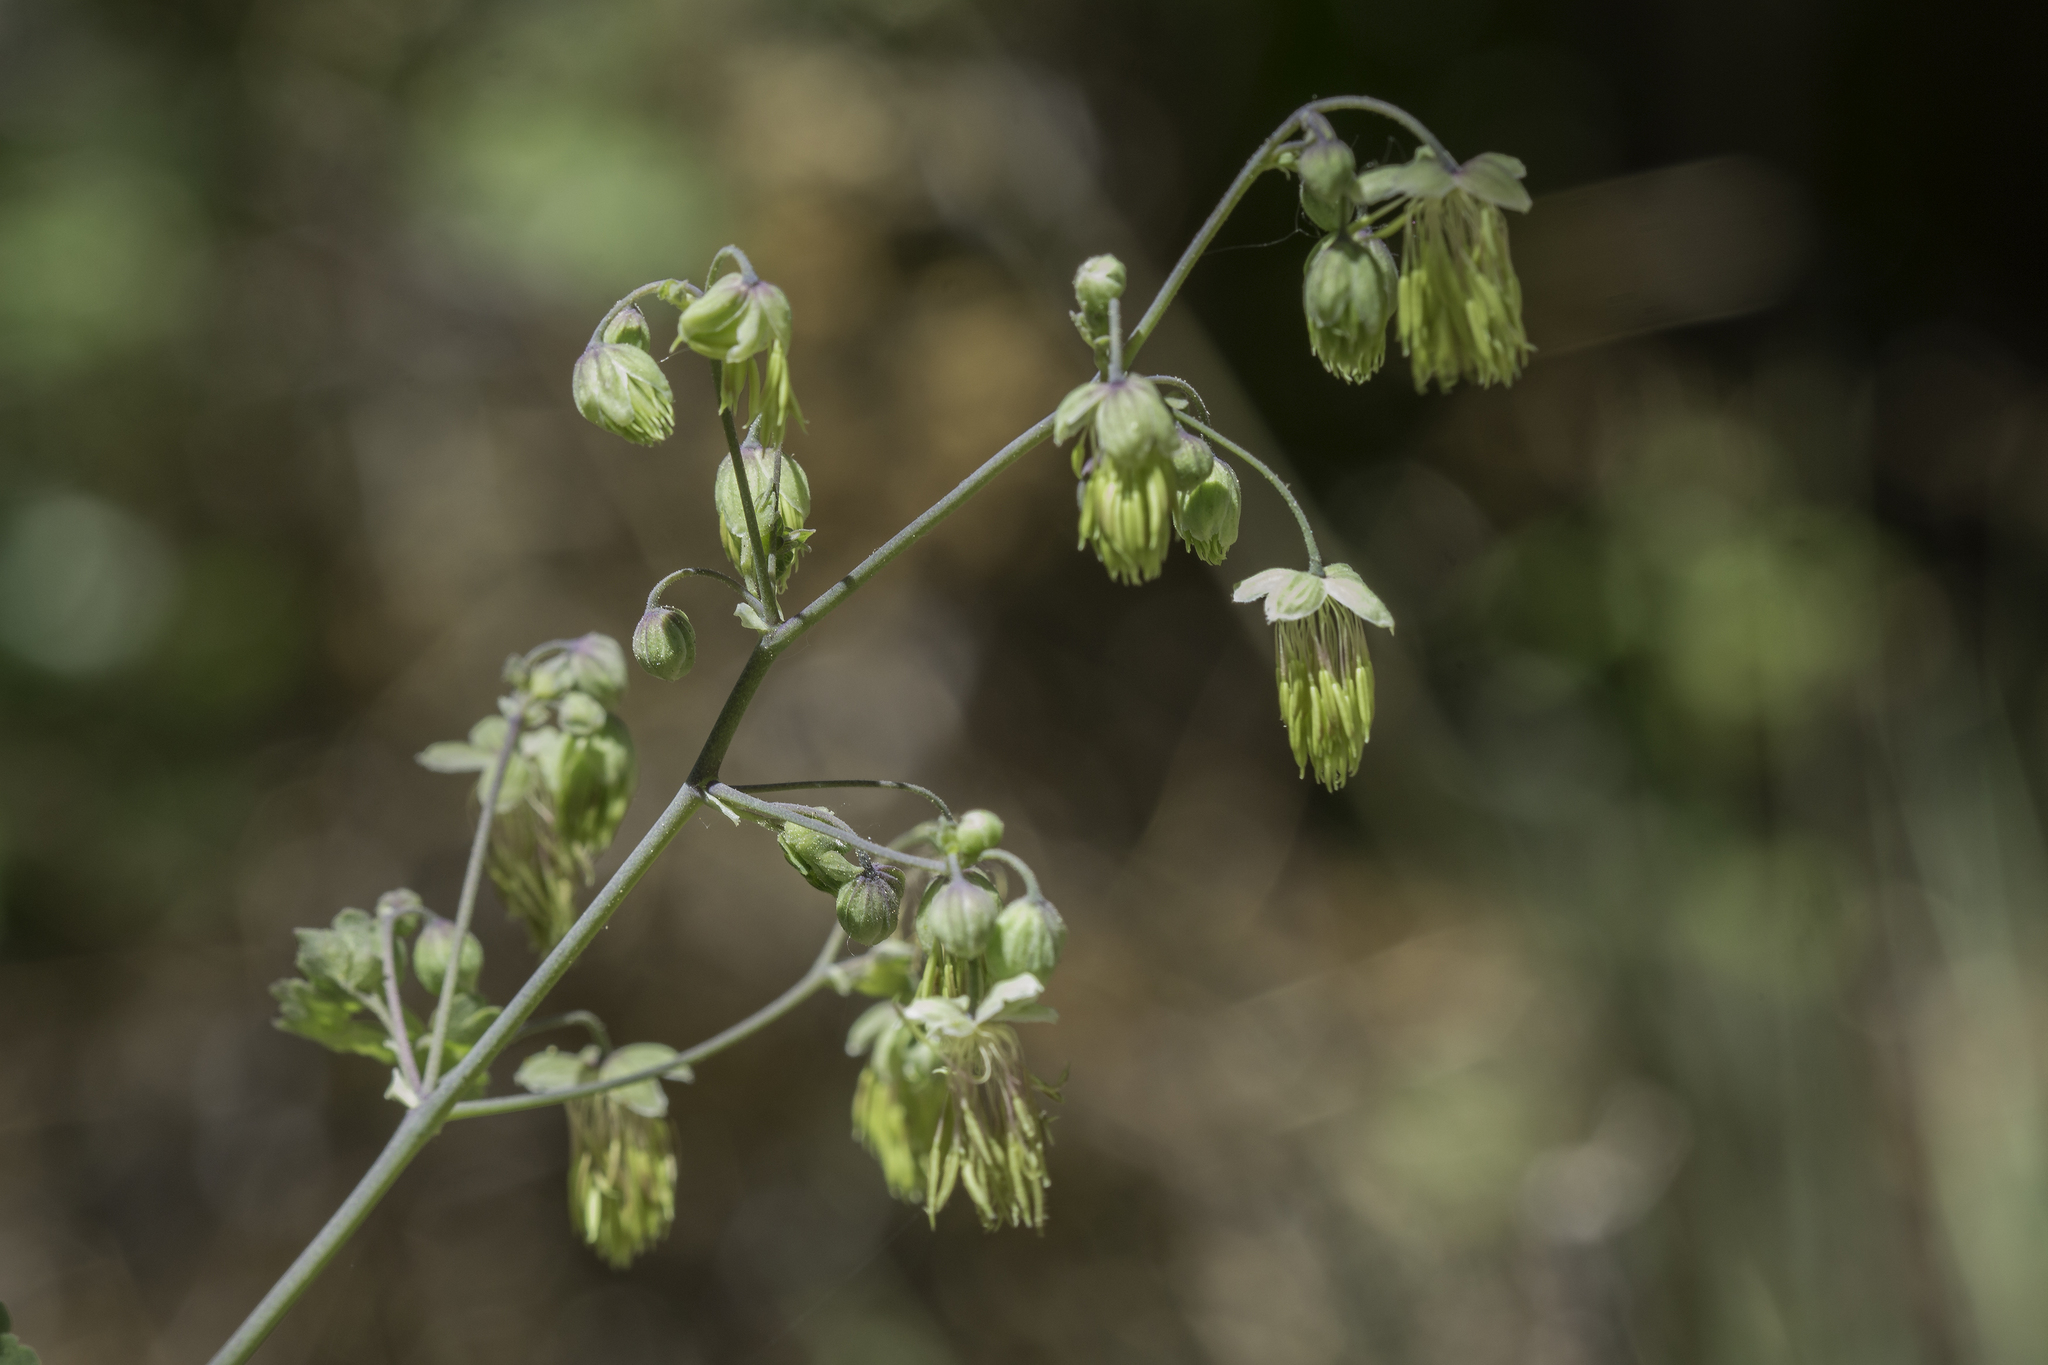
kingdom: Plantae
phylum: Tracheophyta
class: Magnoliopsida
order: Ranunculales
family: Ranunculaceae
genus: Thalictrum
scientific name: Thalictrum fendleri
